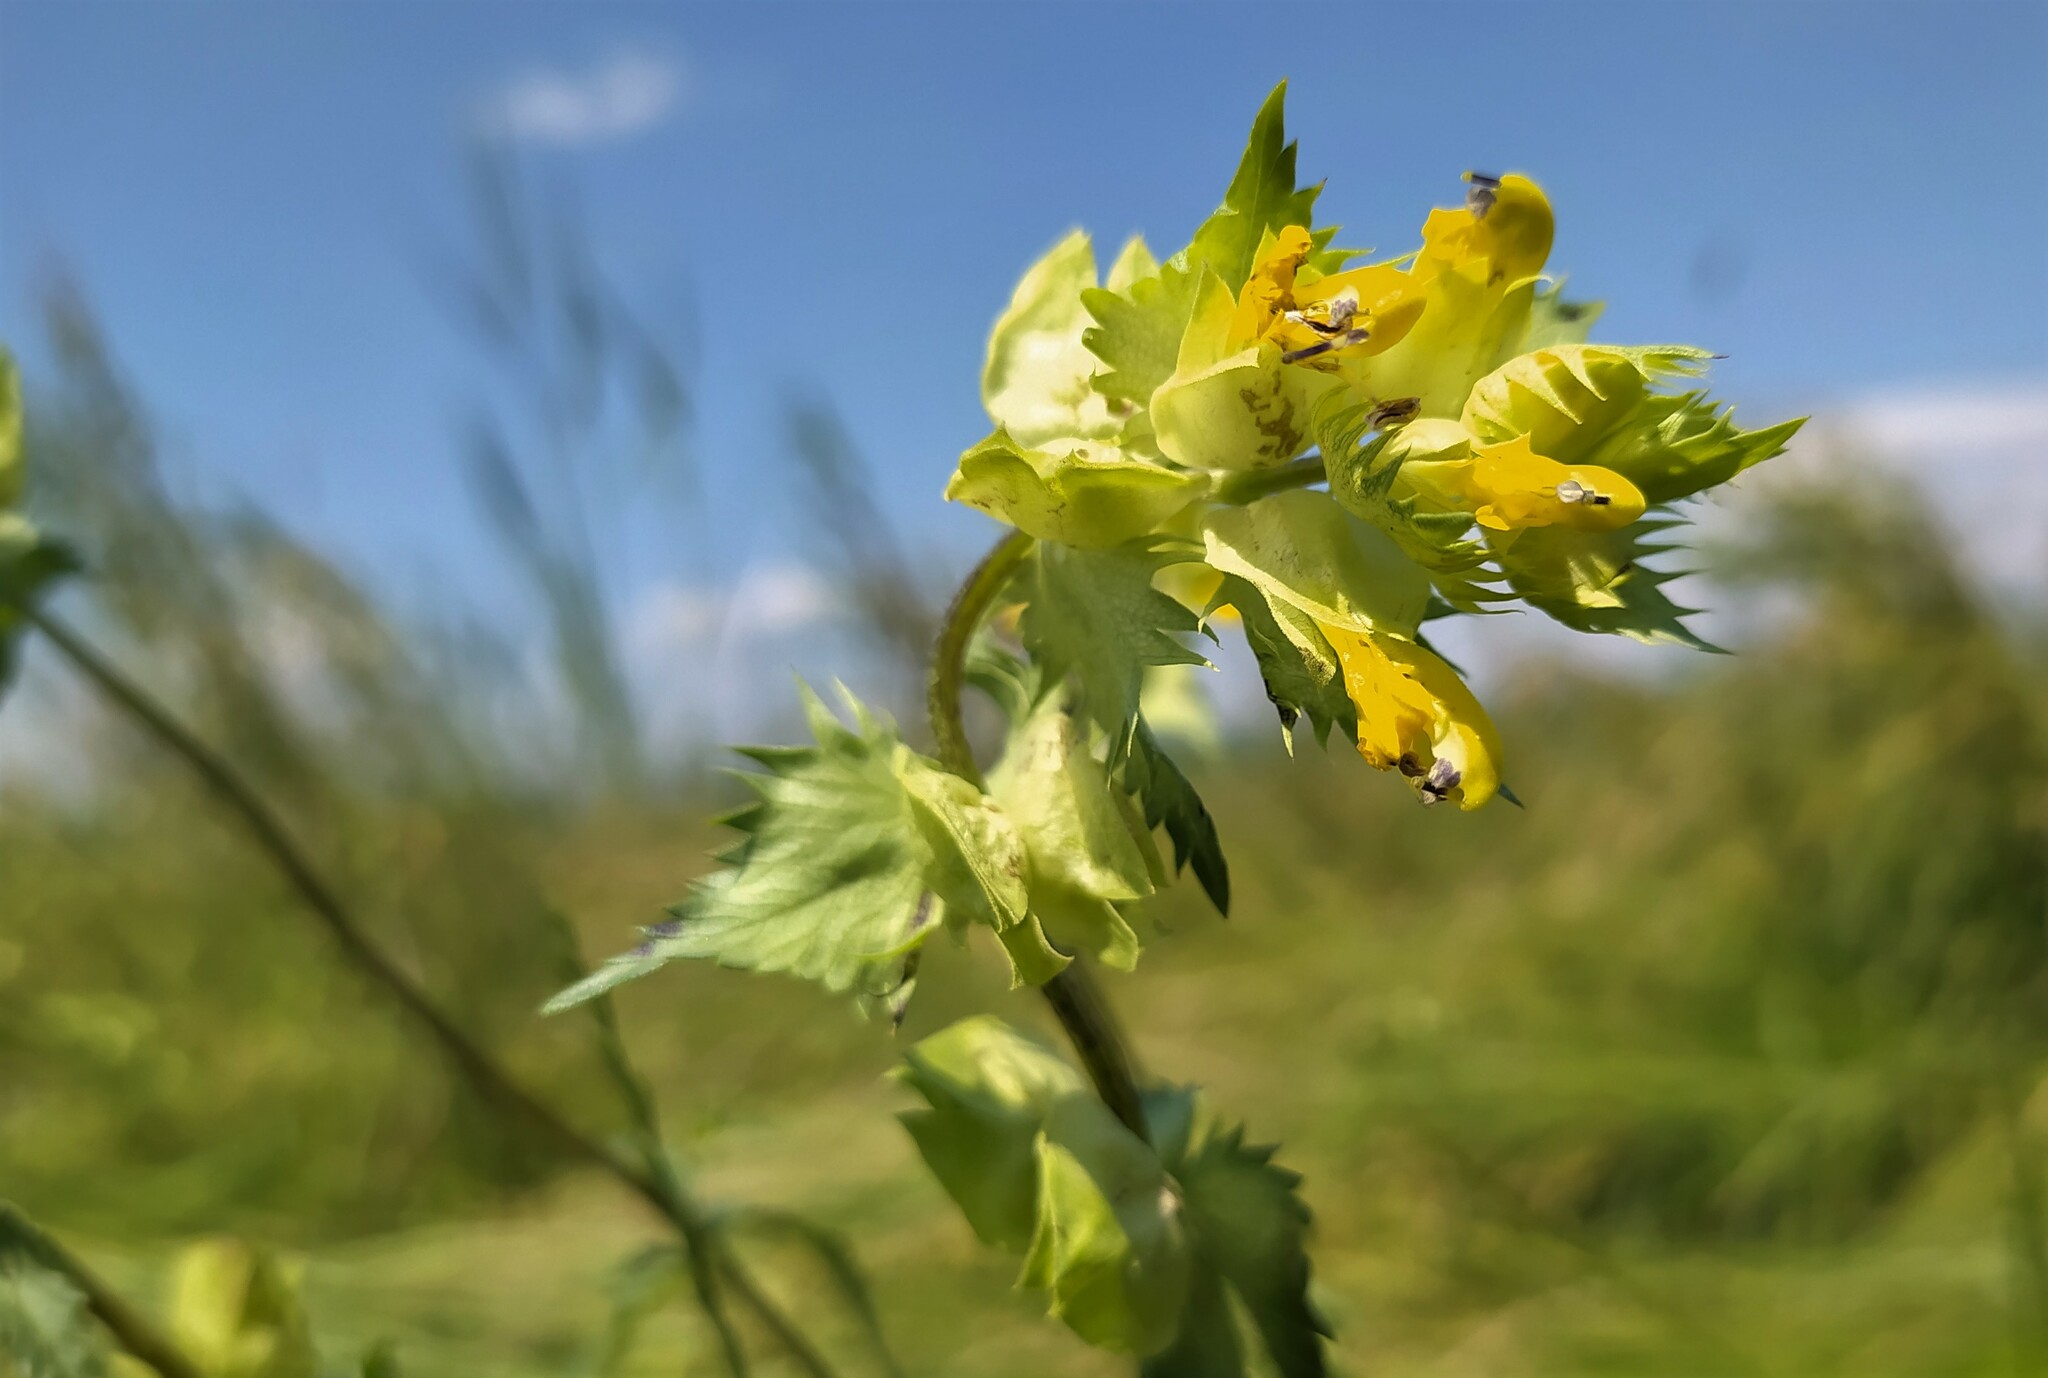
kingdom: Plantae
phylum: Tracheophyta
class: Magnoliopsida
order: Lamiales
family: Orobanchaceae
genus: Rhinanthus
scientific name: Rhinanthus serotinus
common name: Late-flowering yellow rattle
